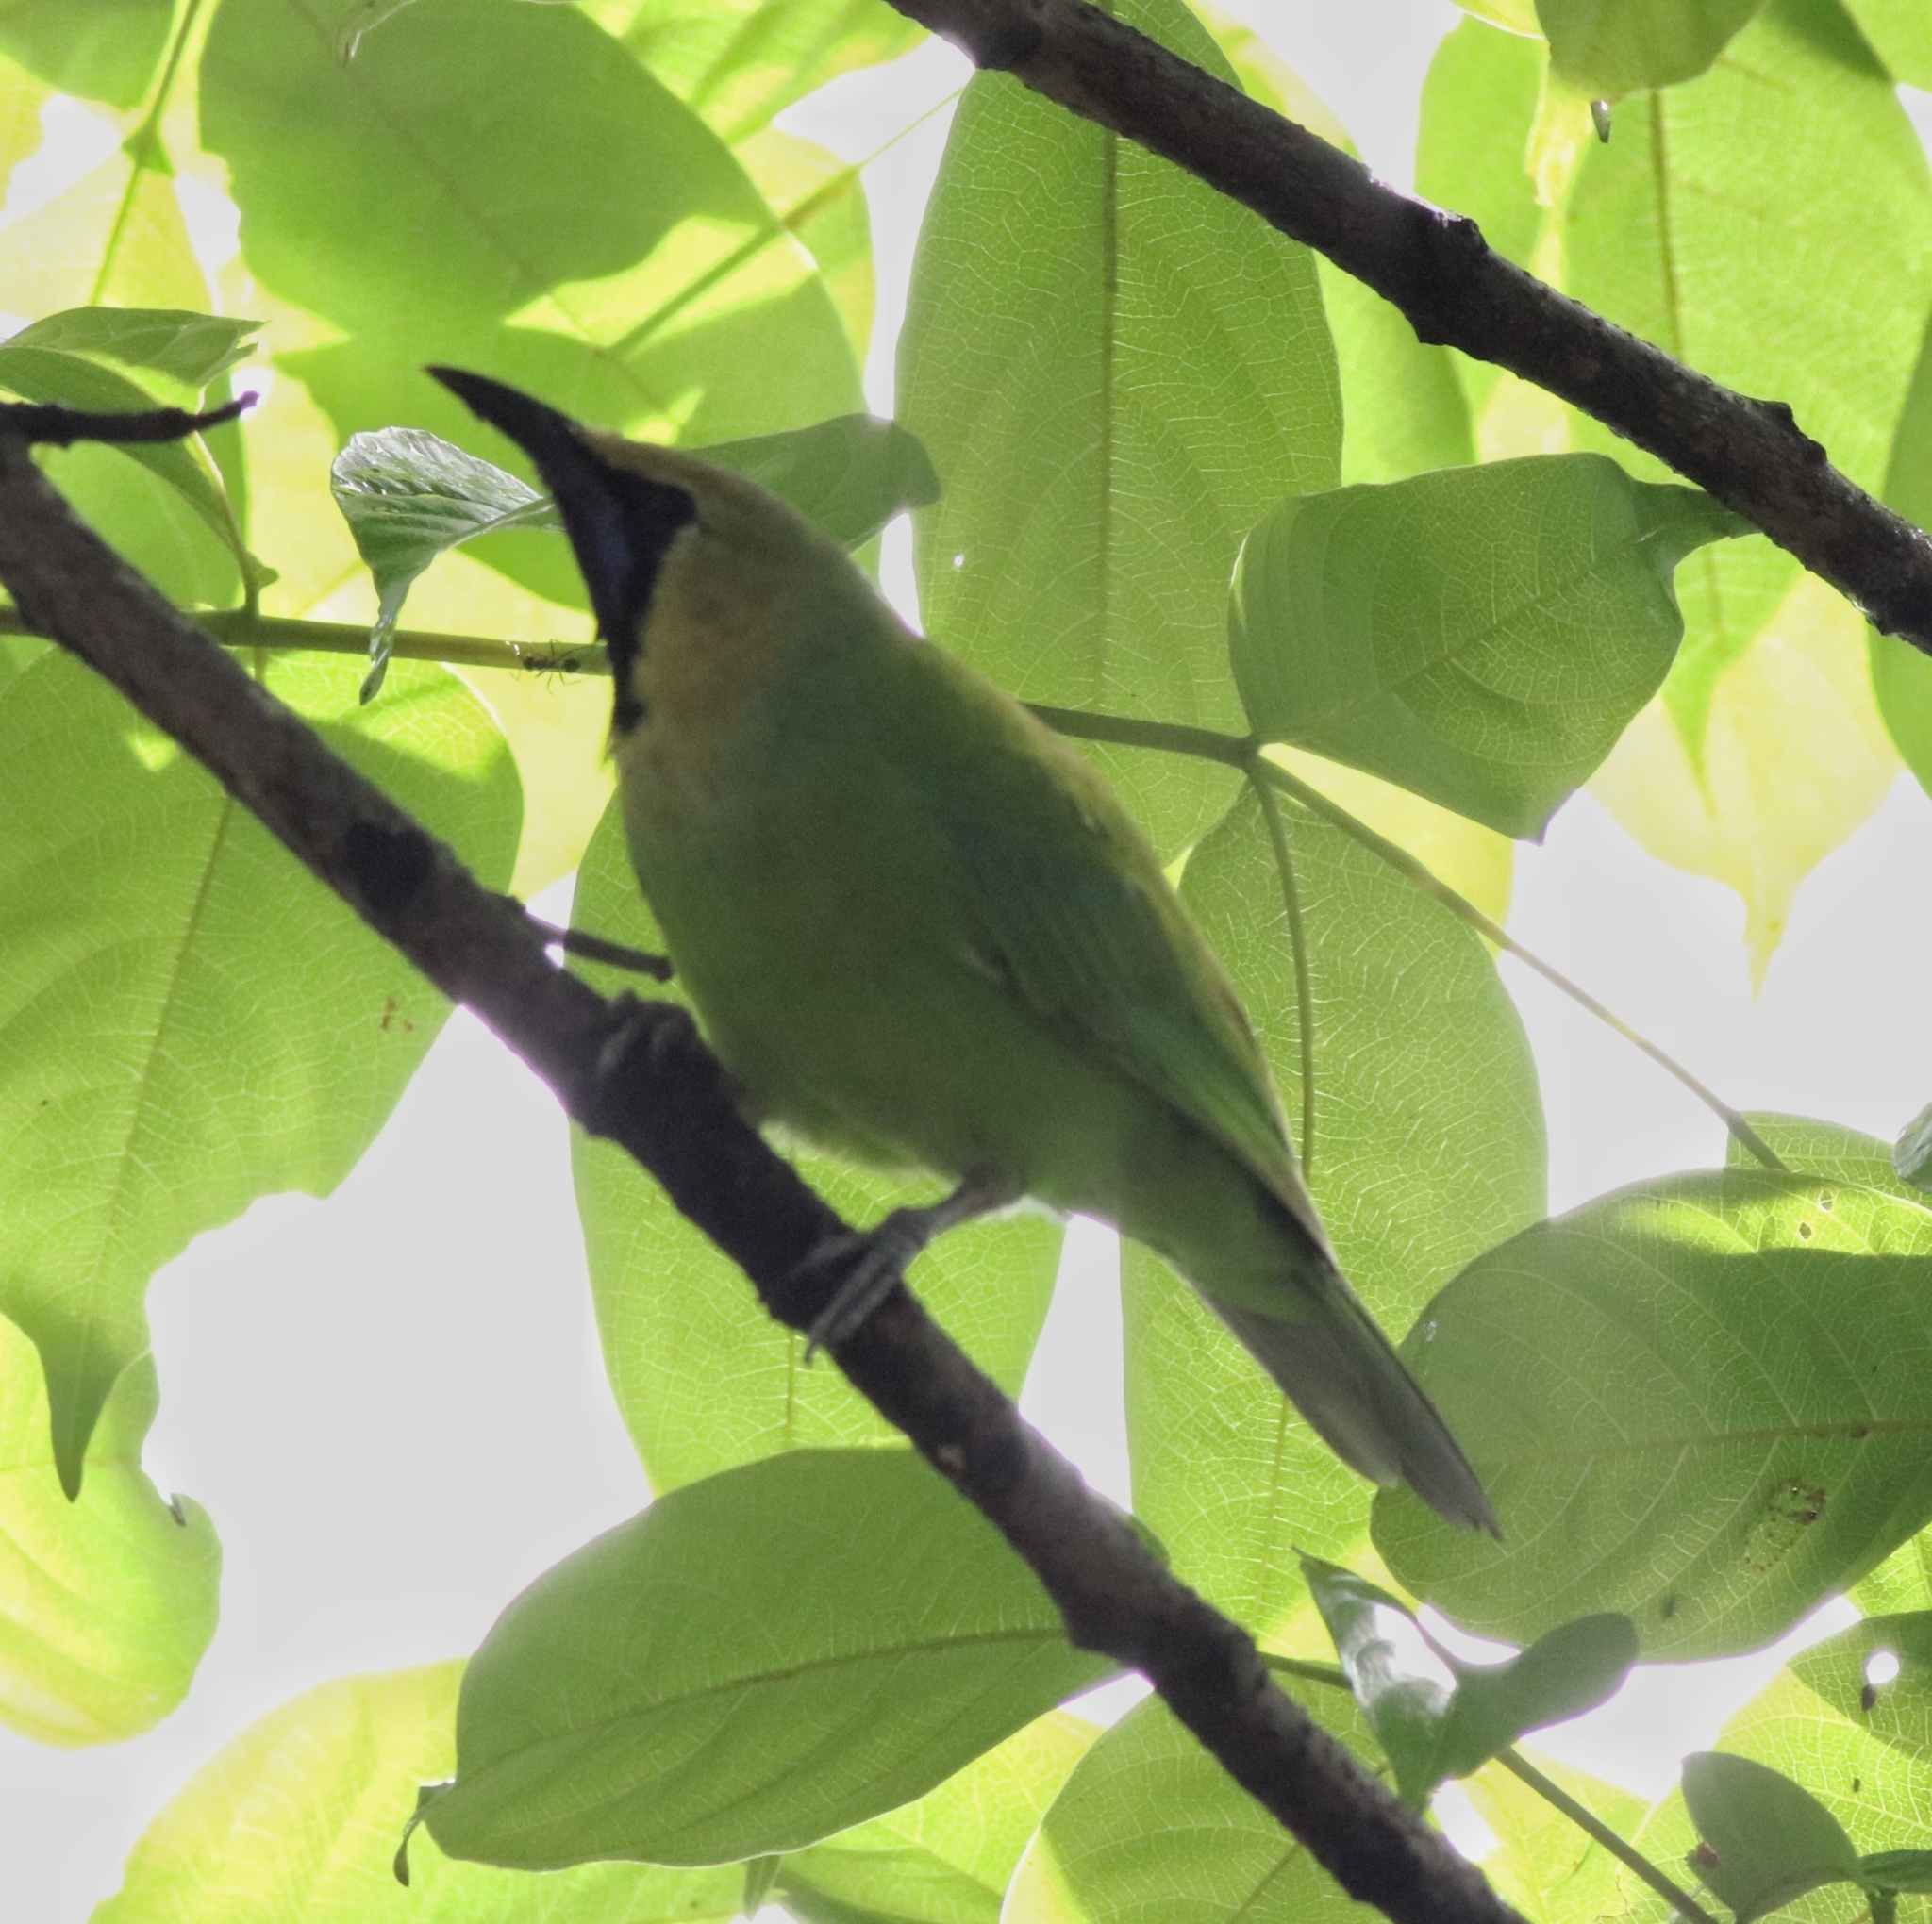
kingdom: Animalia
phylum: Chordata
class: Aves
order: Passeriformes
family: Chloropseidae
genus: Chloropsis
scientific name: Chloropsis jerdoni
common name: Jerdon's leafbird
